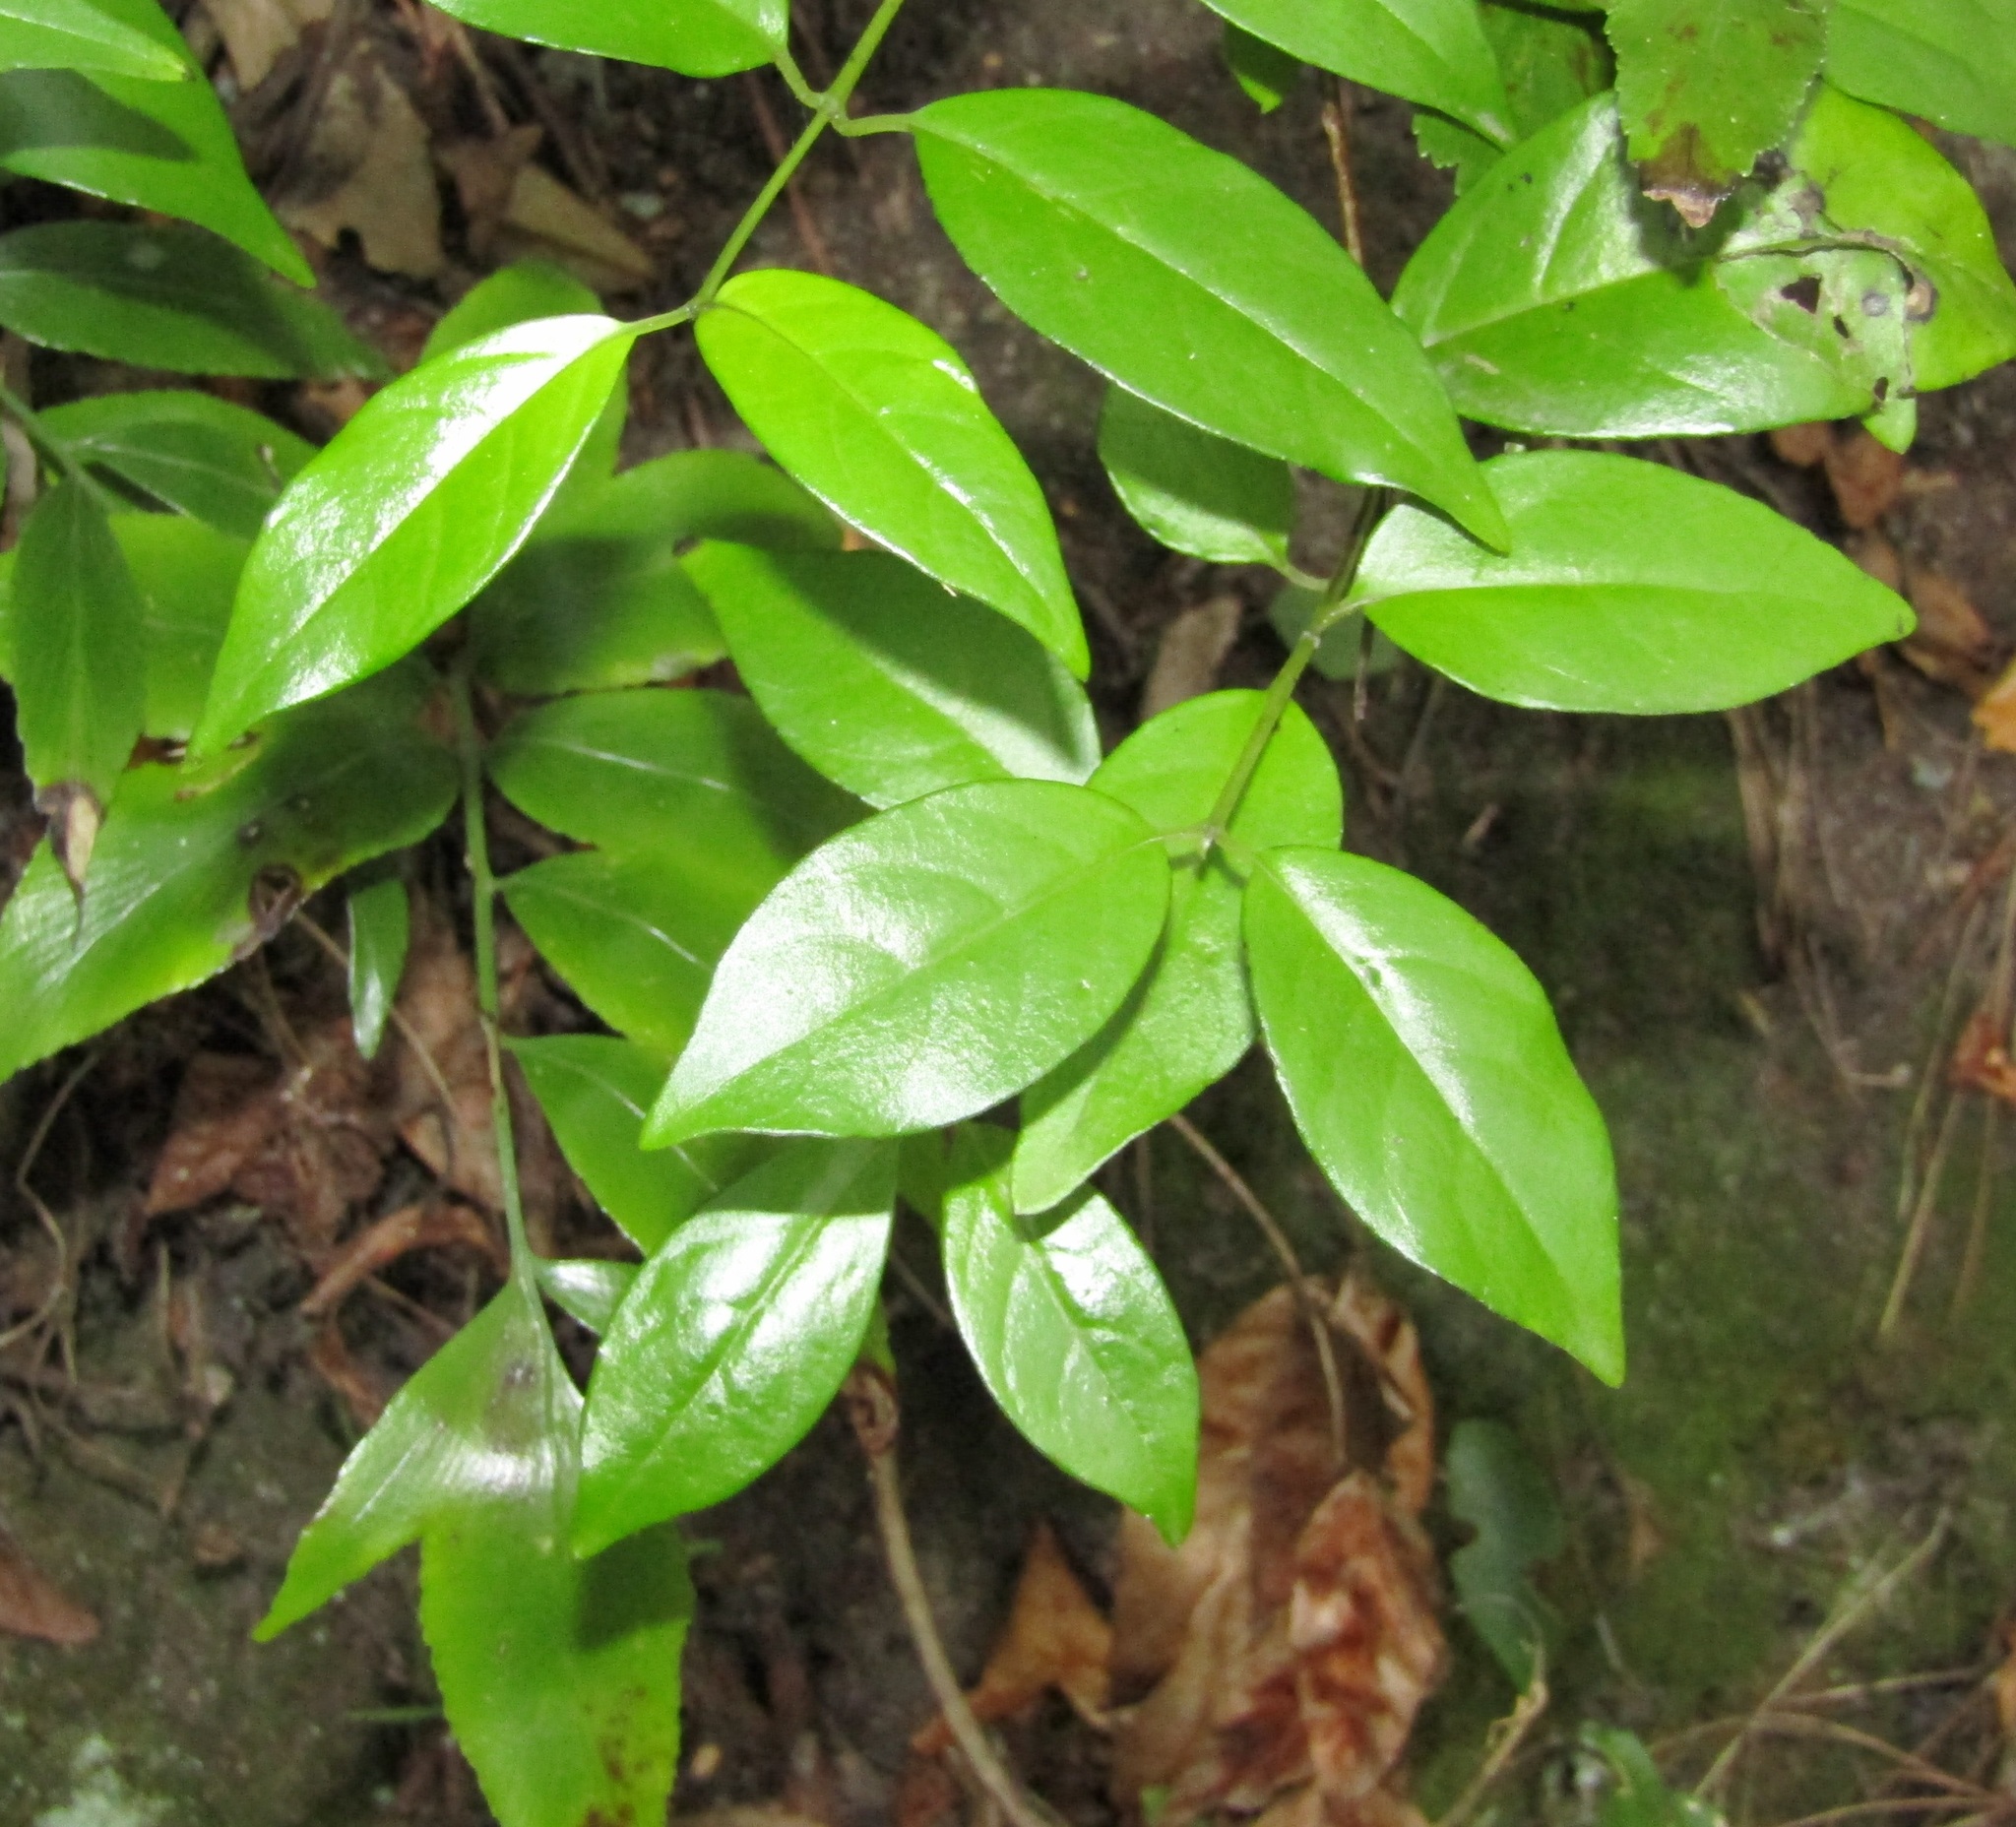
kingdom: Plantae
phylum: Tracheophyta
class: Magnoliopsida
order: Gentianales
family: Loganiaceae
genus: Geniostoma
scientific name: Geniostoma ligustrifolium
